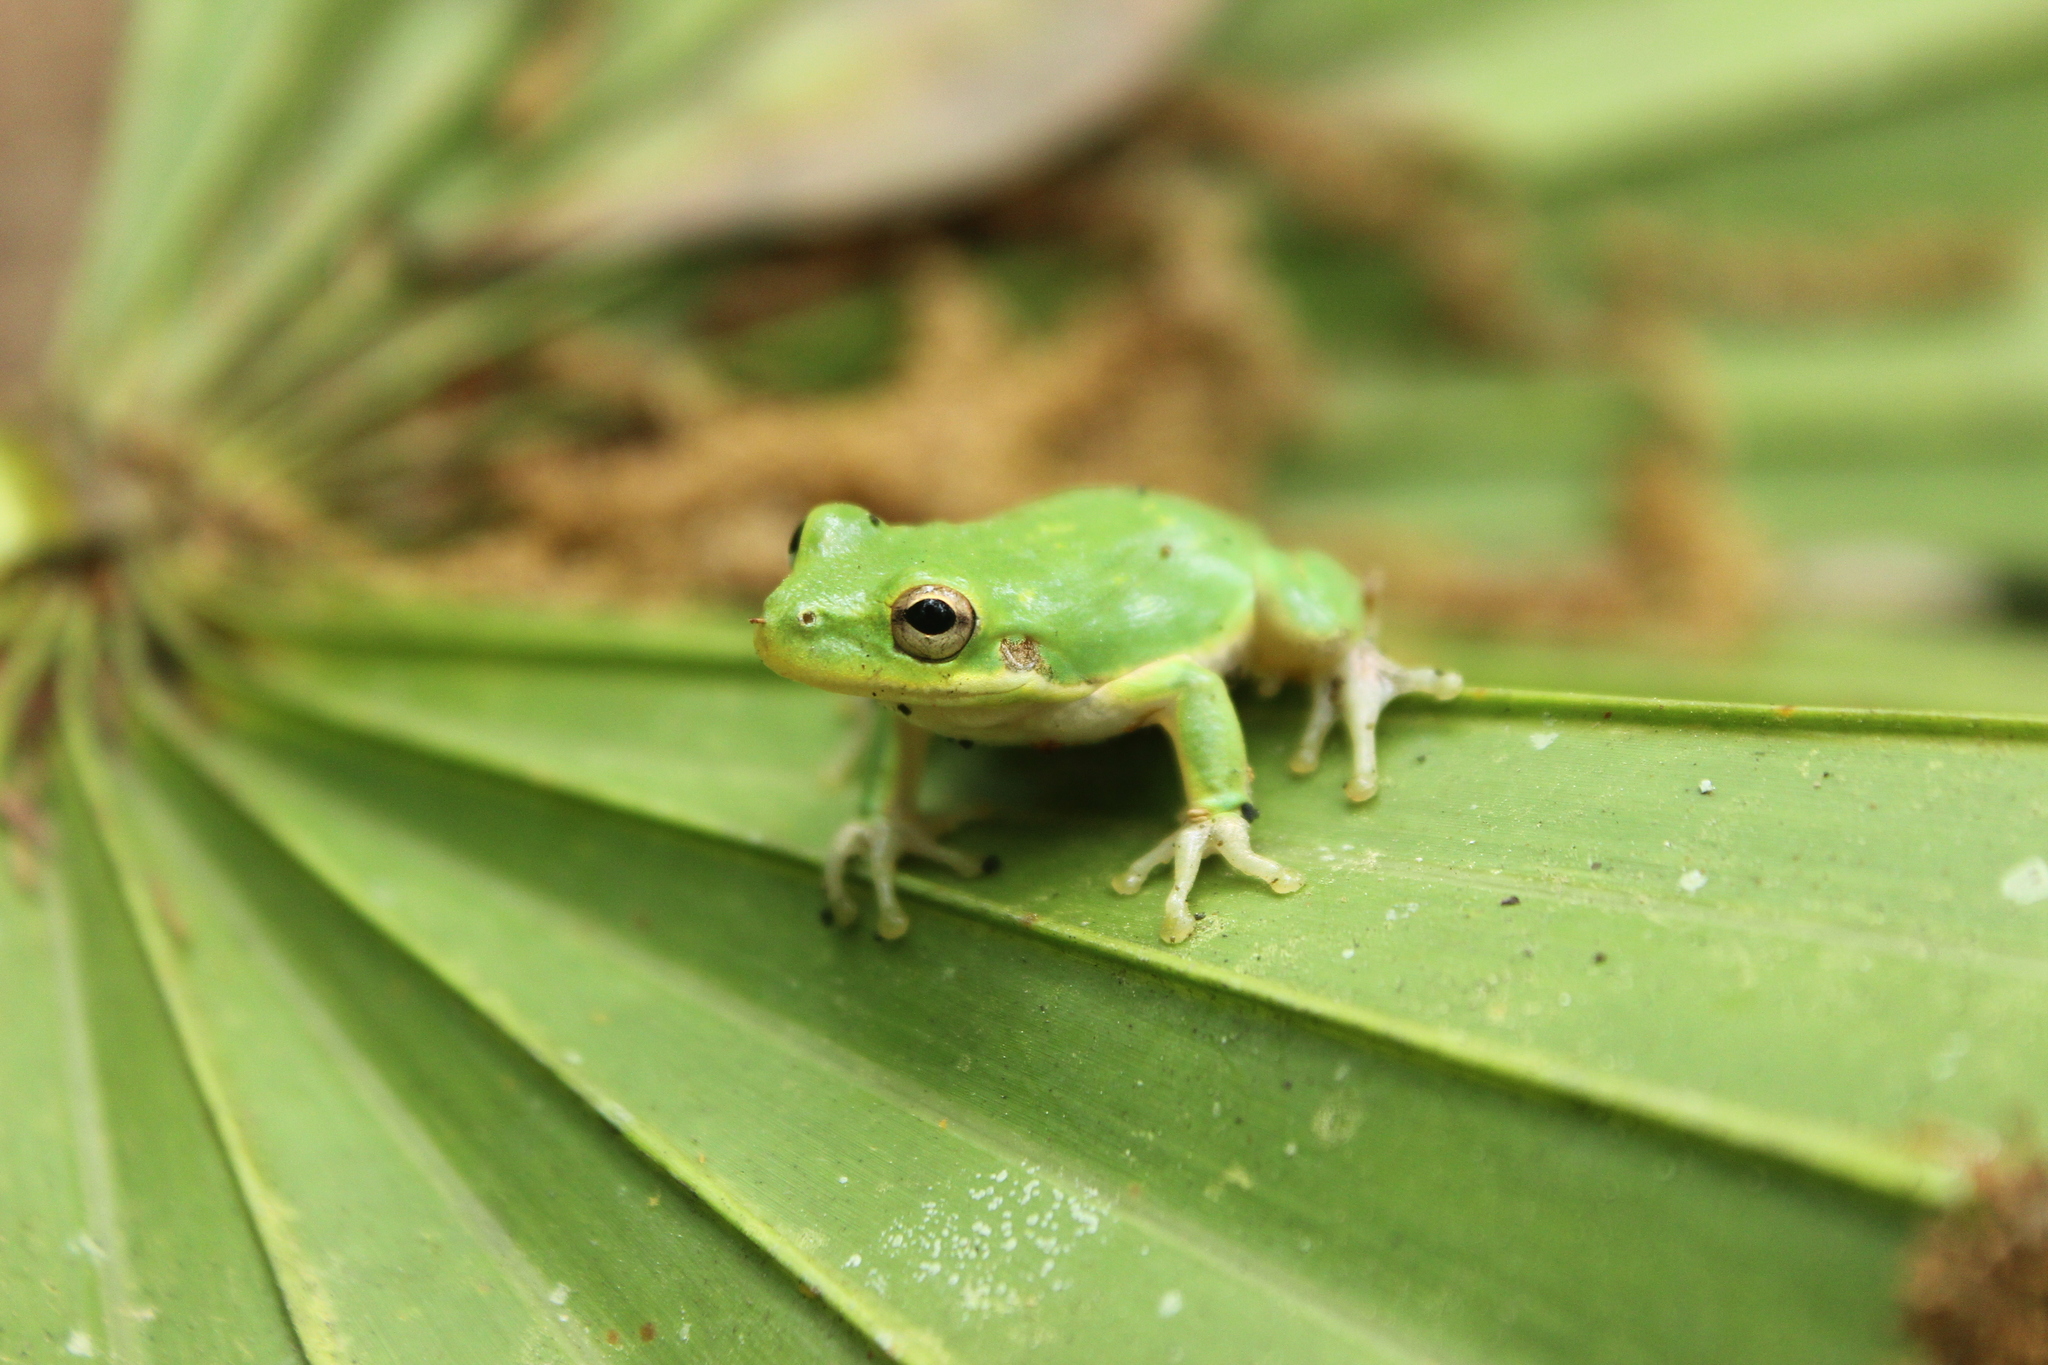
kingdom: Animalia
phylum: Chordata
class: Amphibia
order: Anura
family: Hylidae
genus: Dryophytes
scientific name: Dryophytes squirellus
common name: Squirrel treefrog
